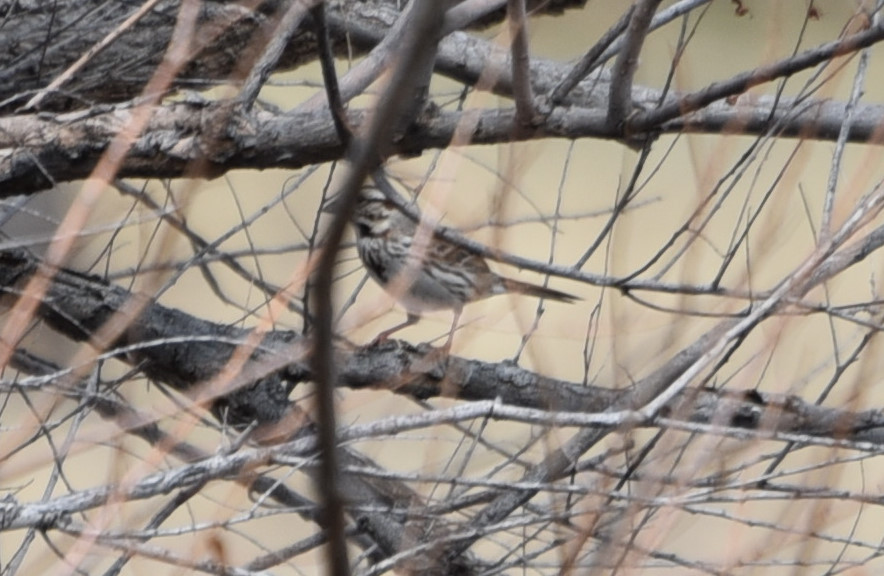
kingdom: Animalia
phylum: Chordata
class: Aves
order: Passeriformes
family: Passerellidae
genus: Melospiza
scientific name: Melospiza melodia
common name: Song sparrow
